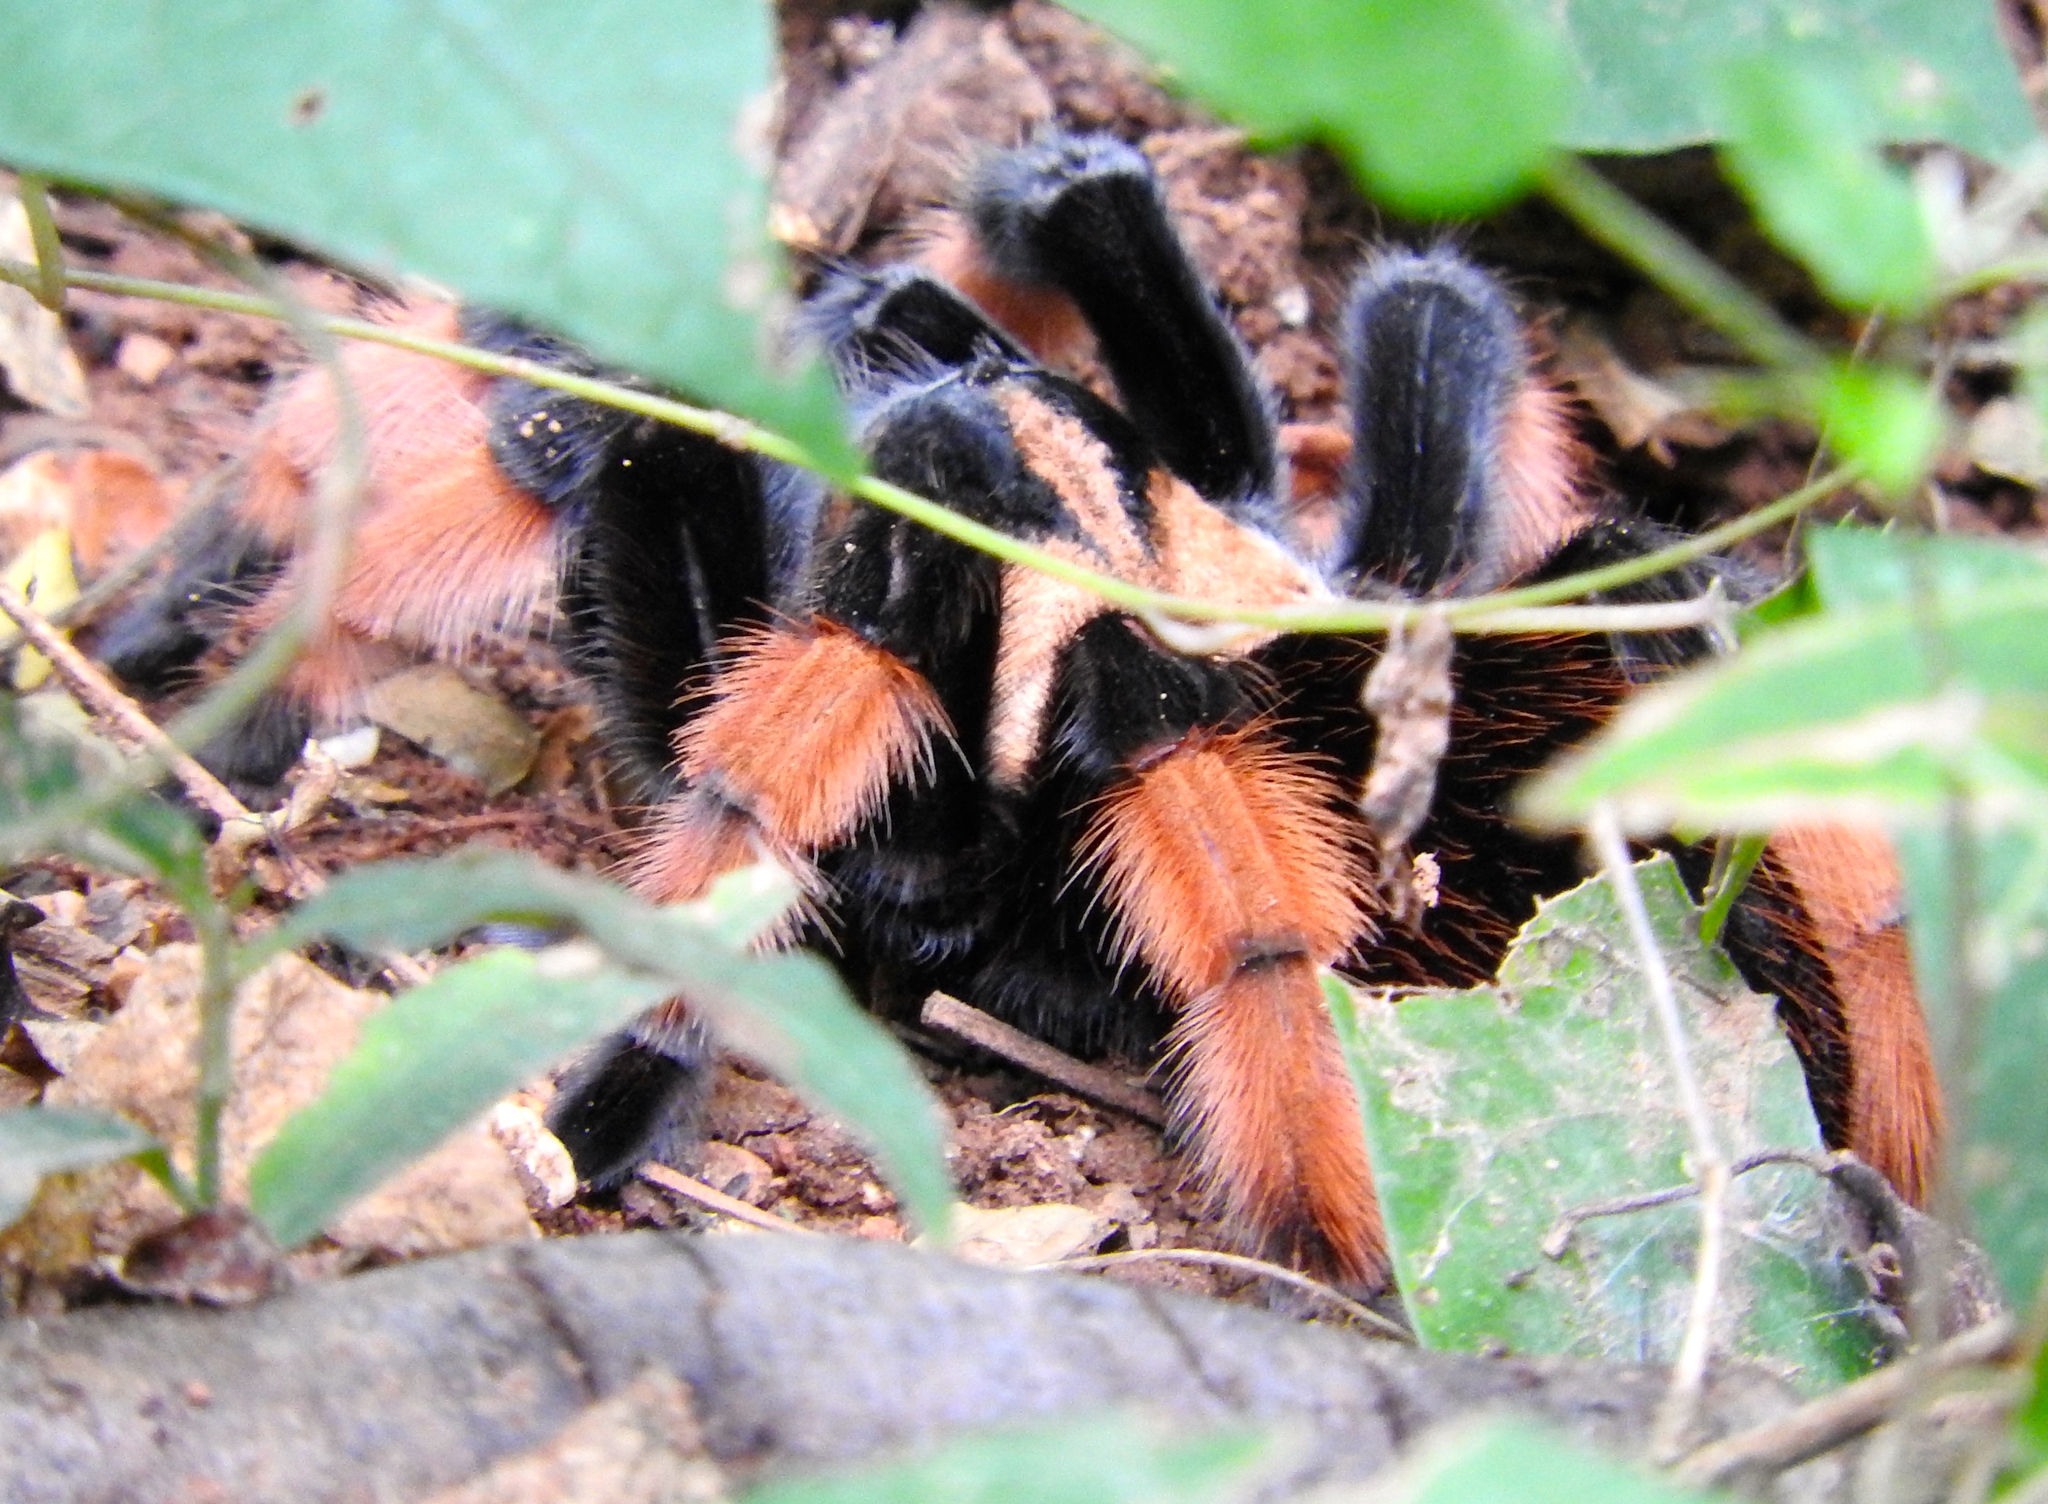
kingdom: Animalia
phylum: Arthropoda
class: Arachnida
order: Araneae
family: Theraphosidae
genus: Brachypelma
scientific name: Brachypelma emilia
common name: Mexican redleg
